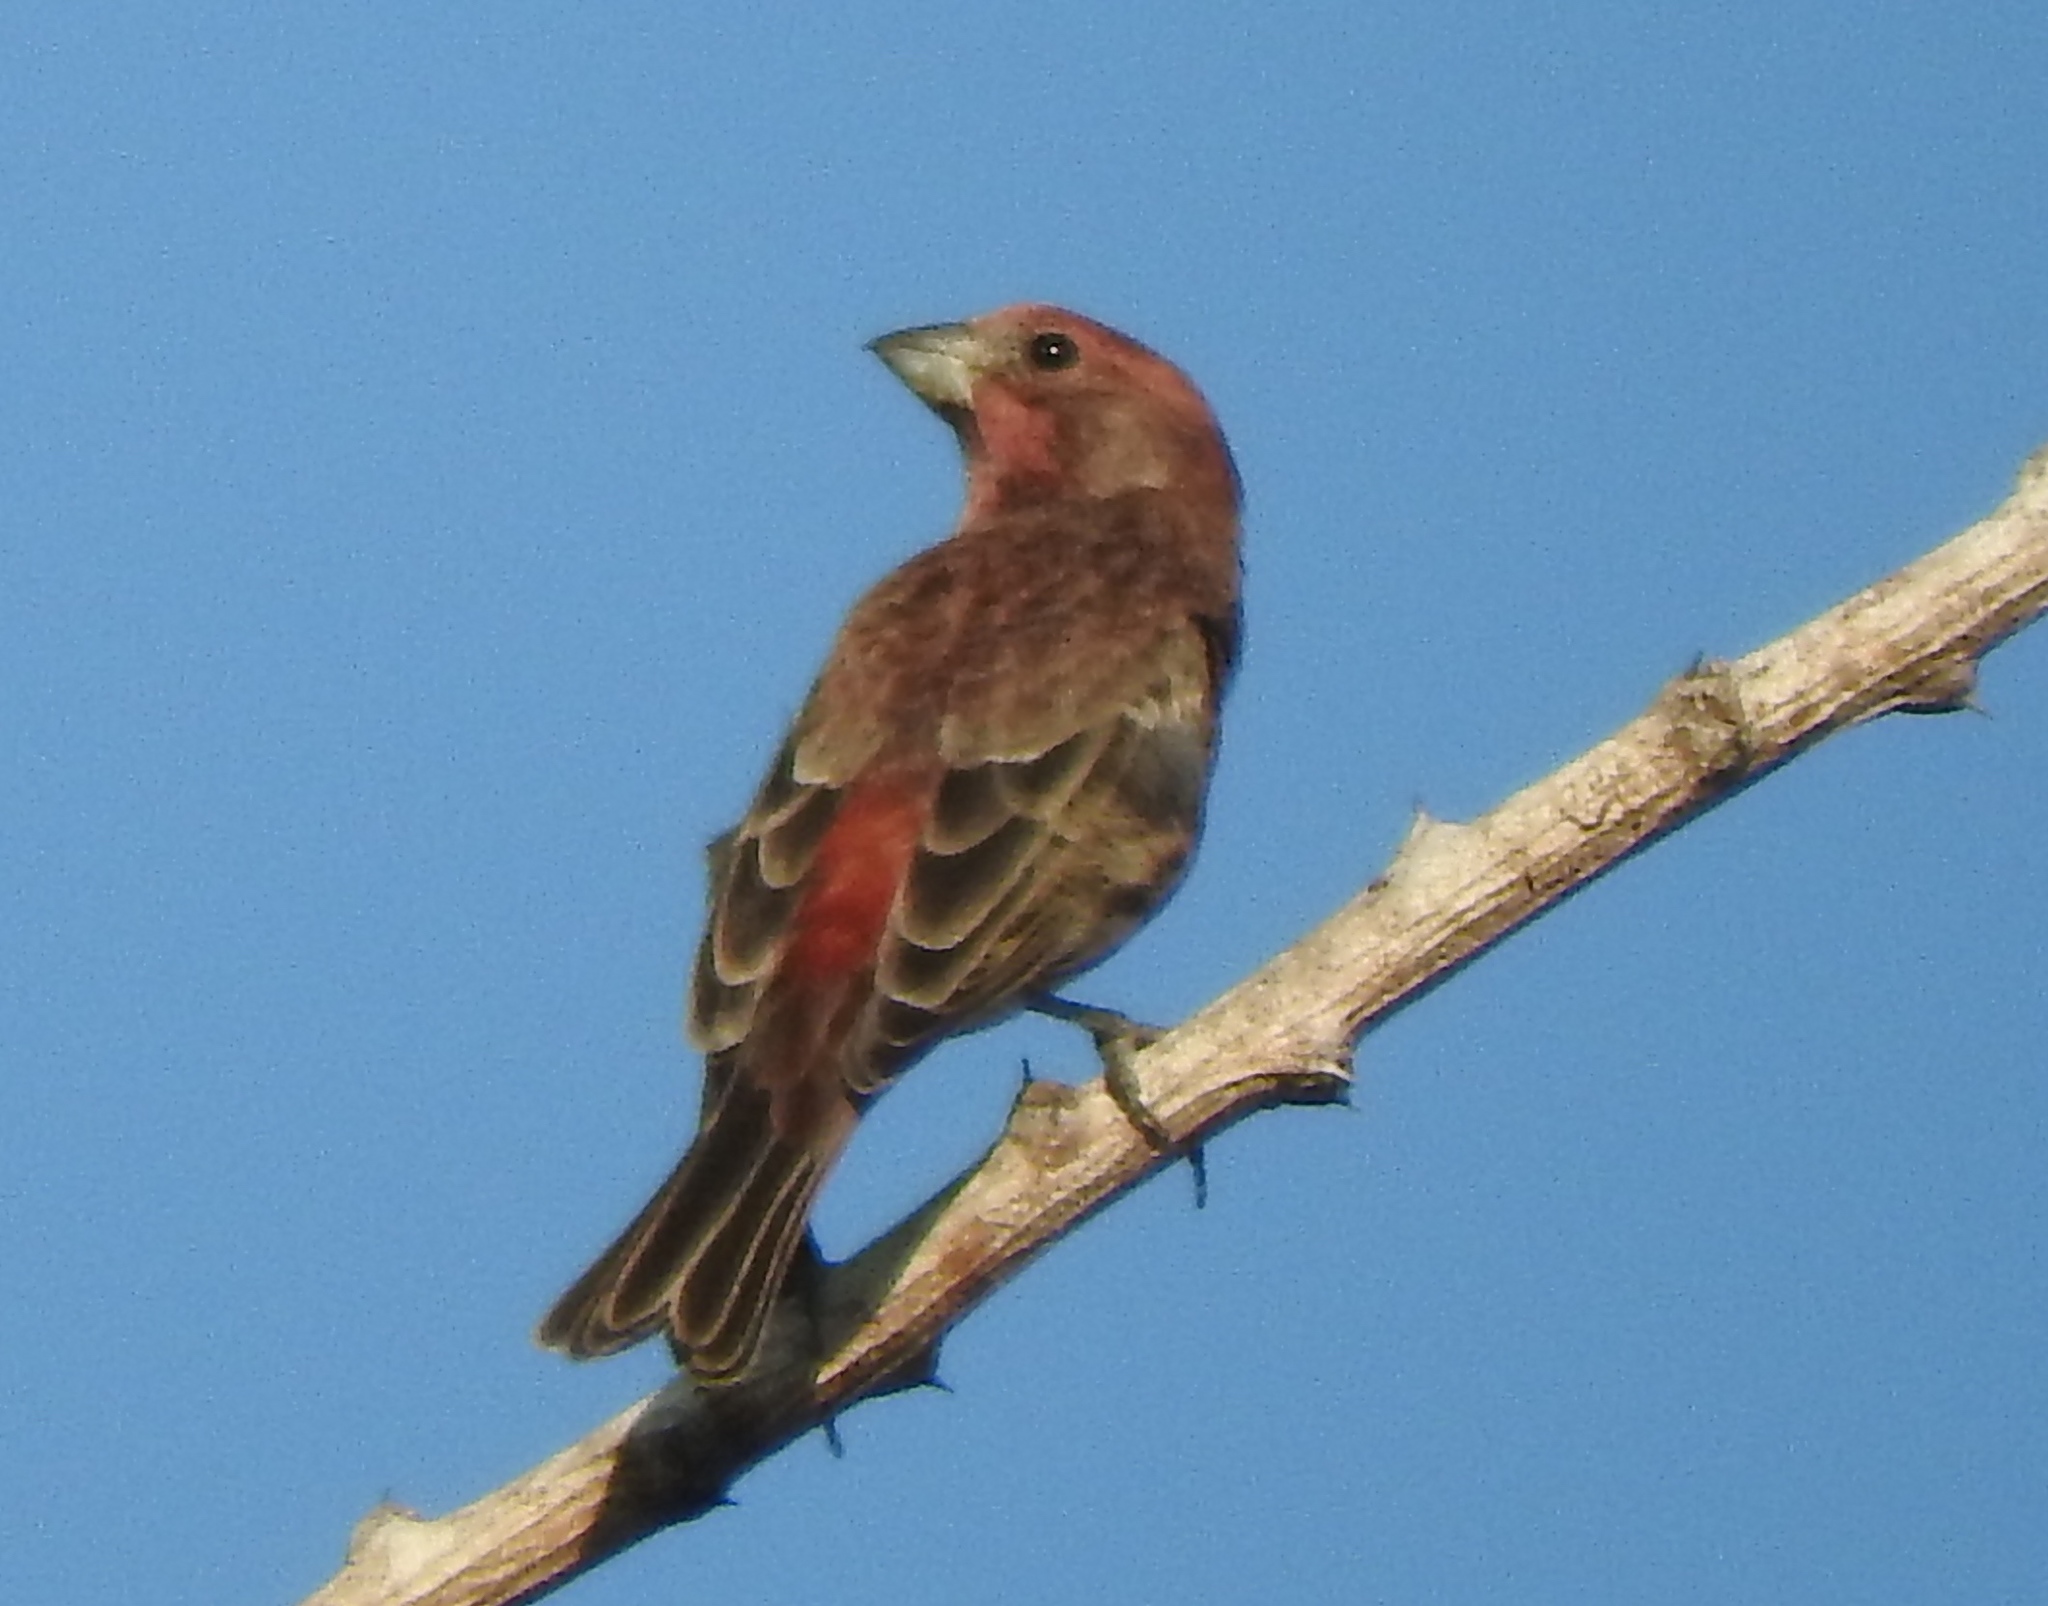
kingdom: Animalia
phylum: Chordata
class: Aves
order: Passeriformes
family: Fringillidae
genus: Haemorhous
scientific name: Haemorhous mexicanus
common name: House finch
